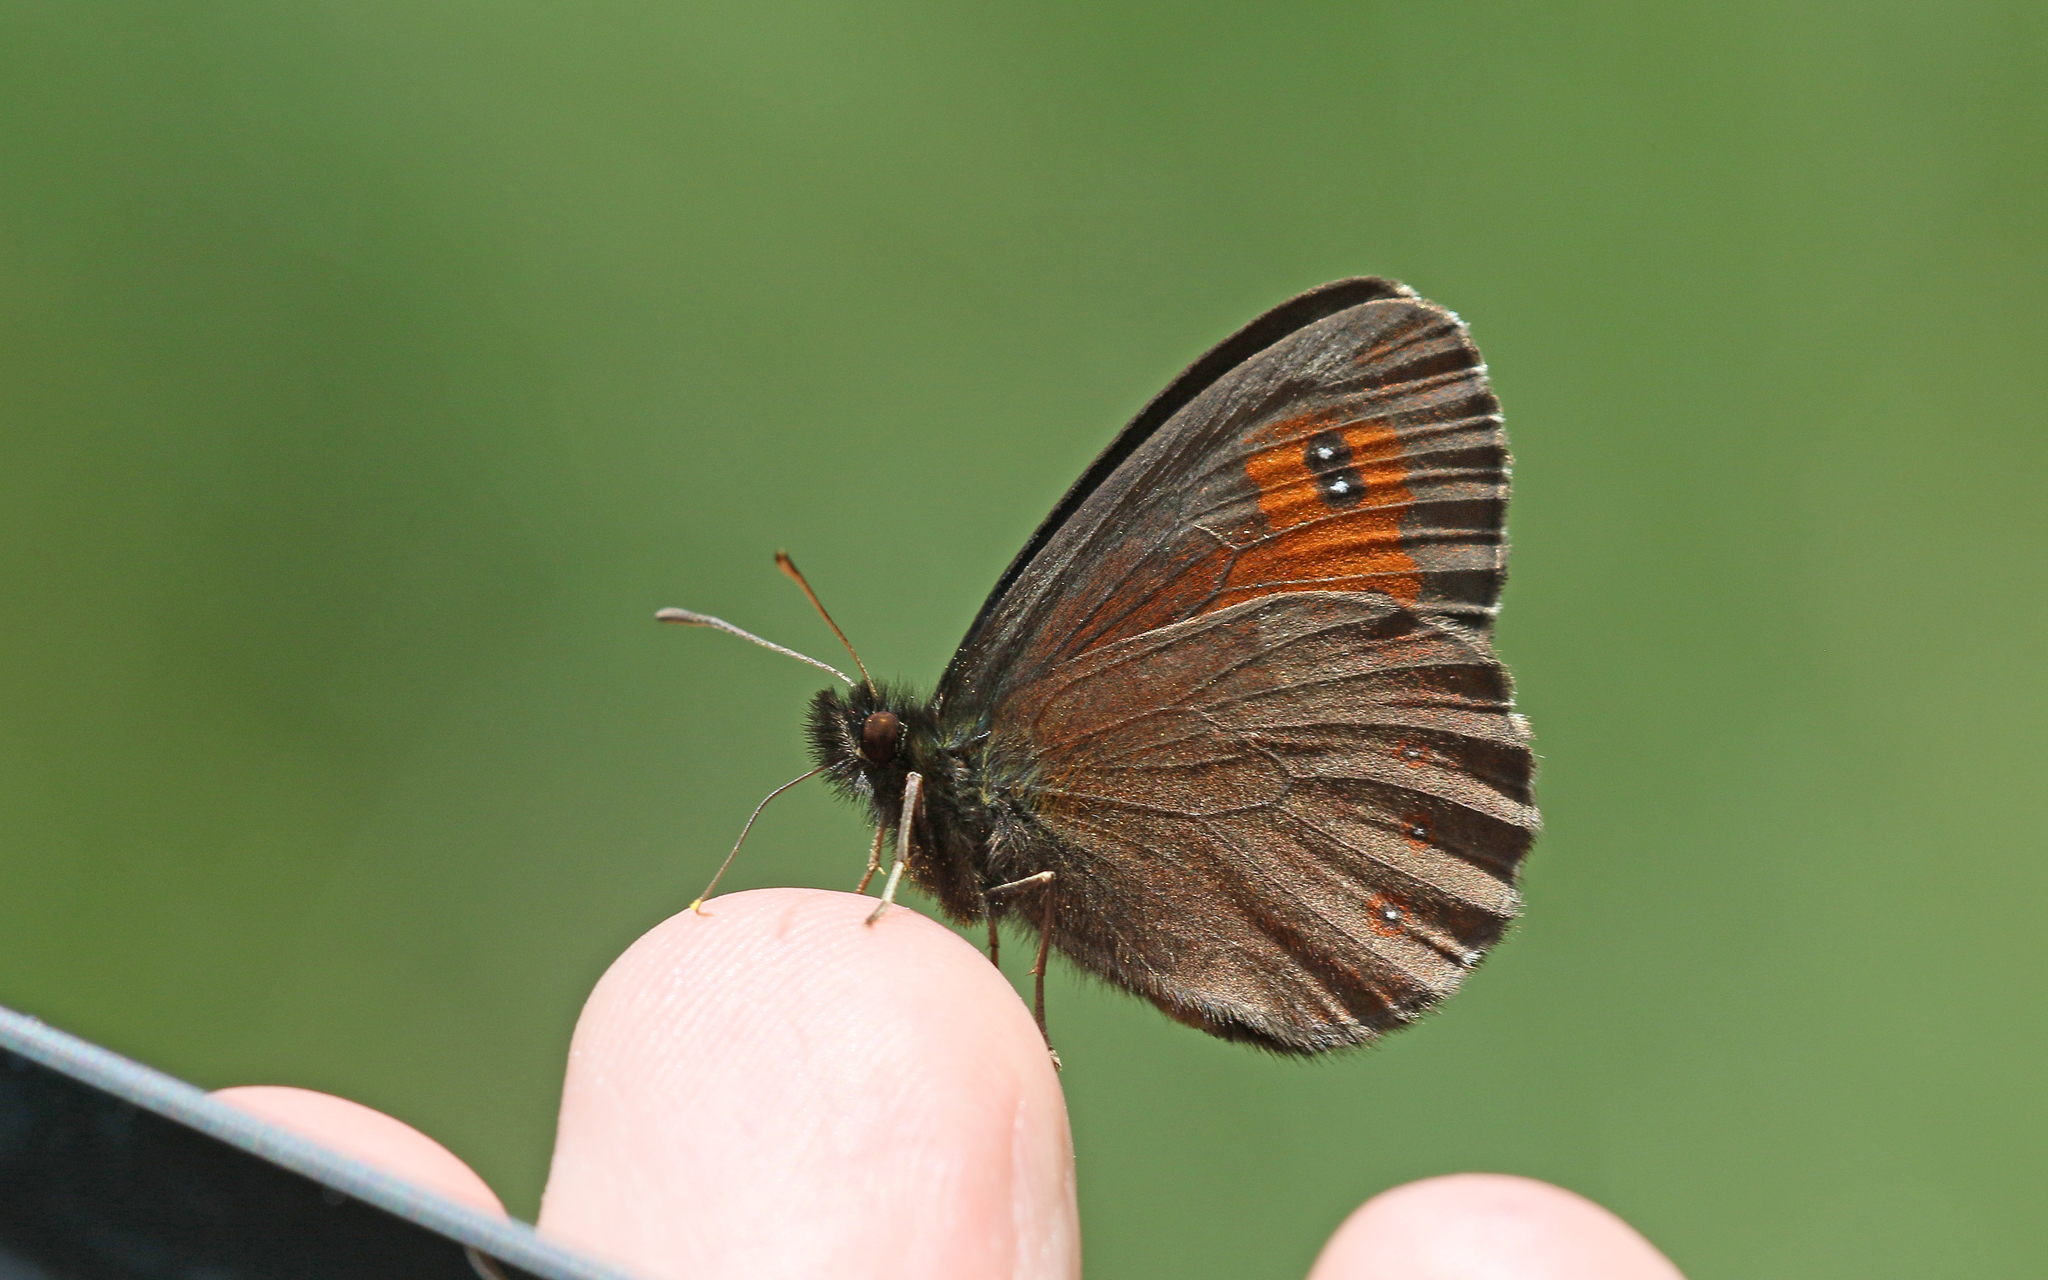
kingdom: Animalia
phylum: Arthropoda
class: Insecta
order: Lepidoptera
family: Nymphalidae
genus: Erebia
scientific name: Erebia euryale
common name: Large ringlet
